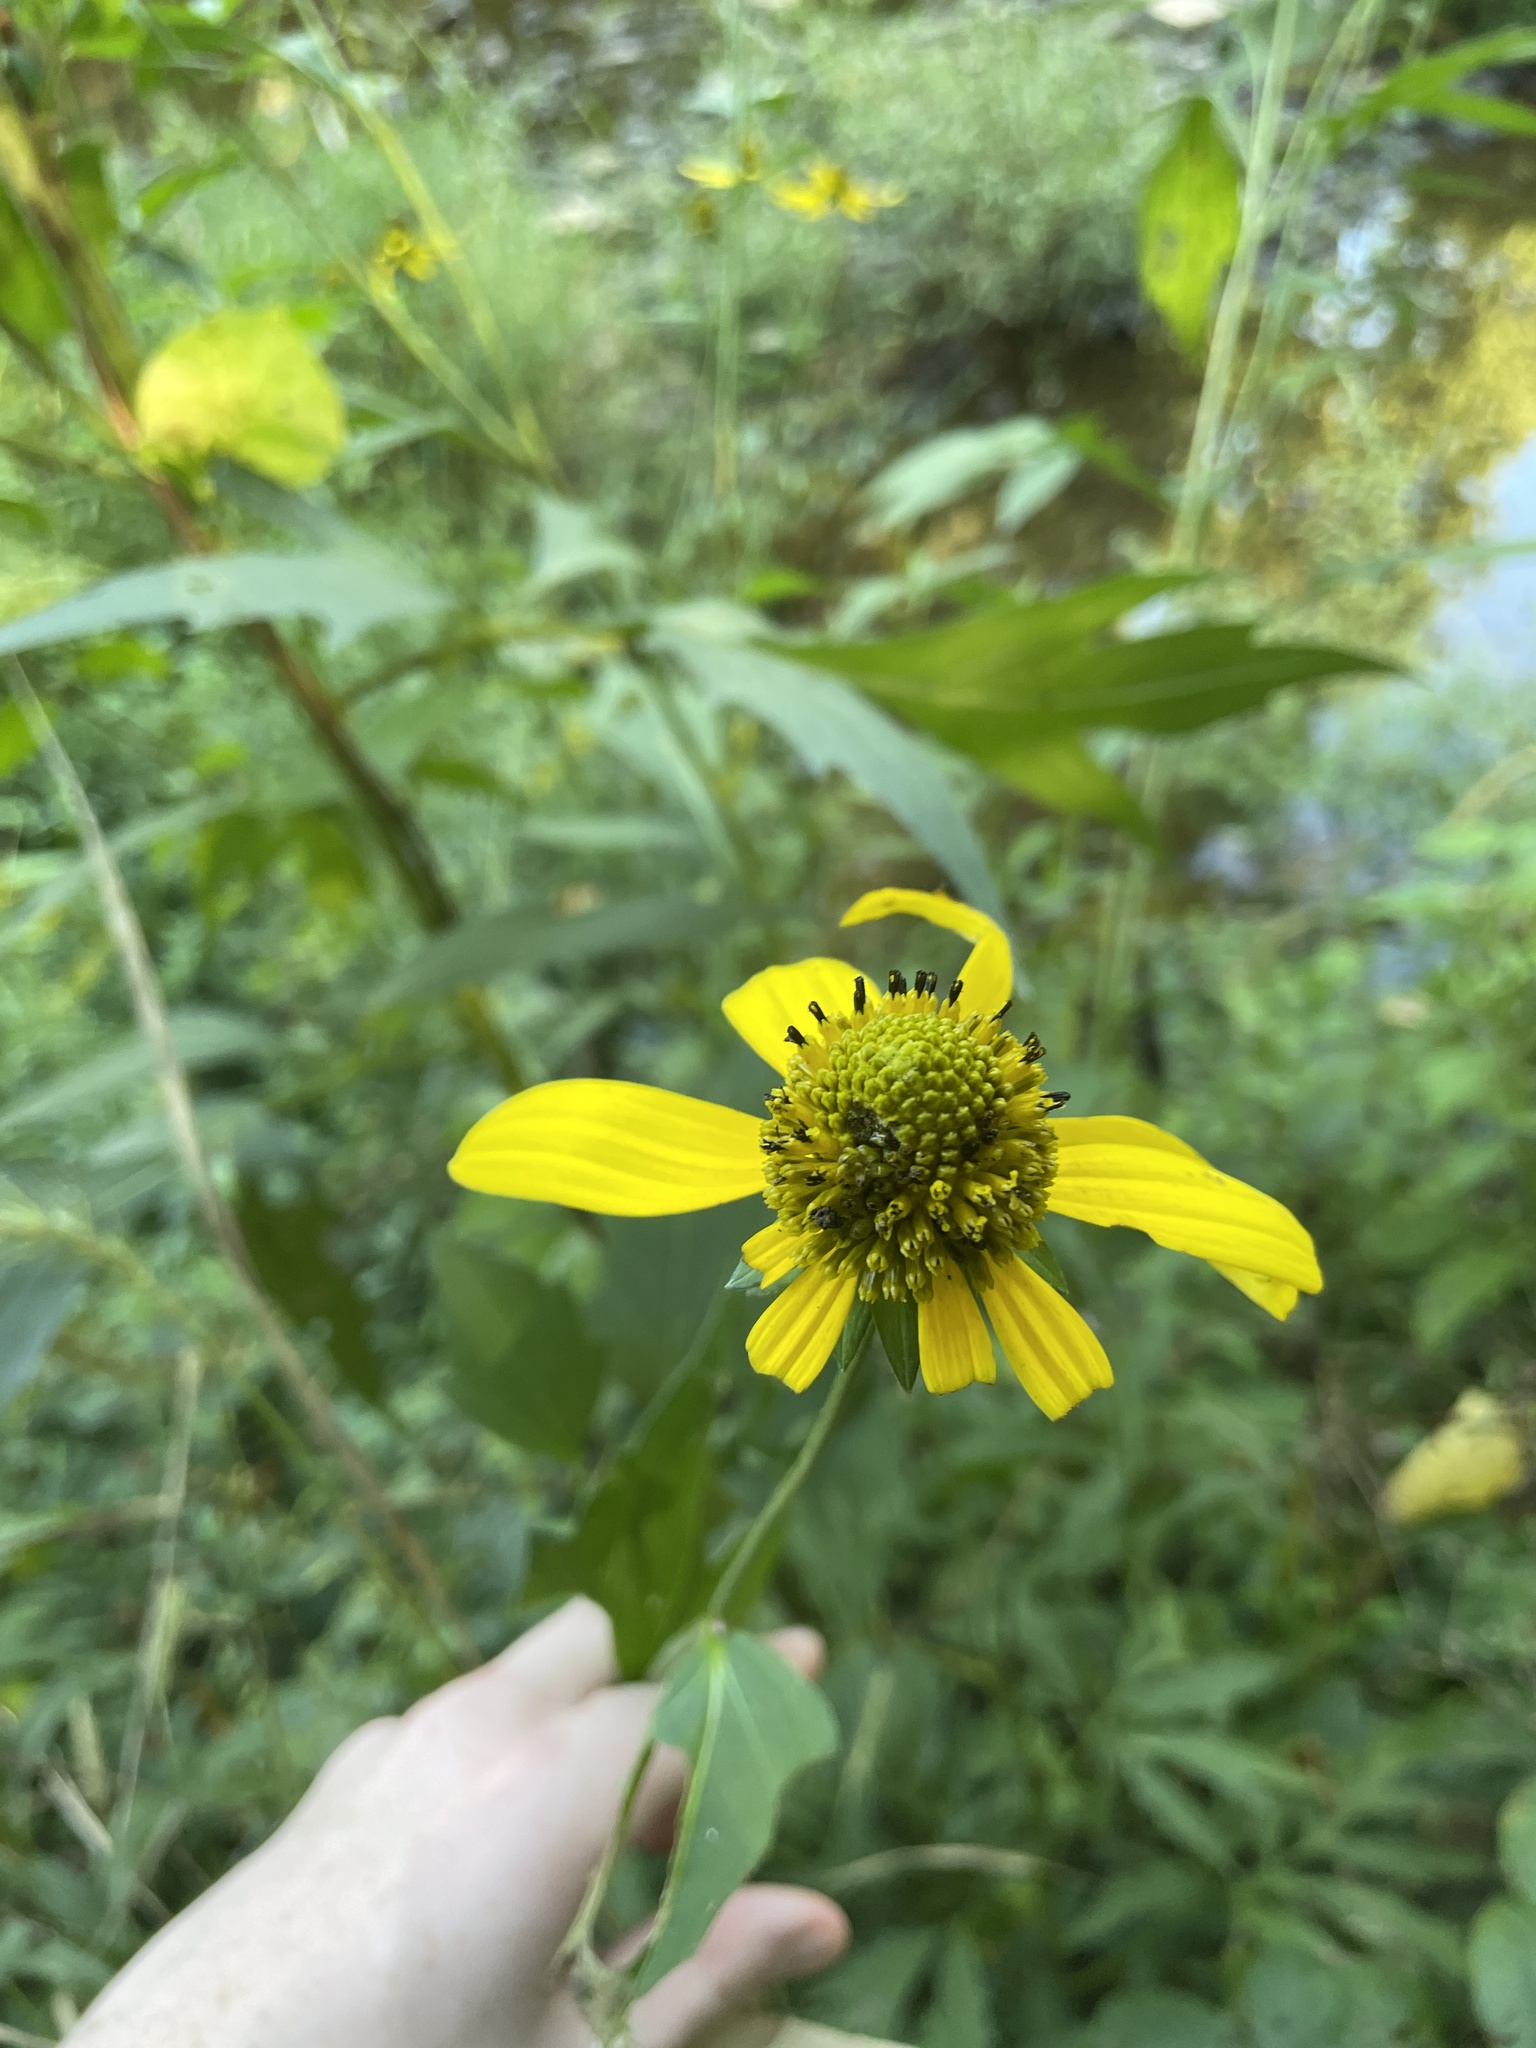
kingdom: Plantae
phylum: Tracheophyta
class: Magnoliopsida
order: Asterales
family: Asteraceae
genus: Rudbeckia
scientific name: Rudbeckia laciniata
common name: Coneflower
